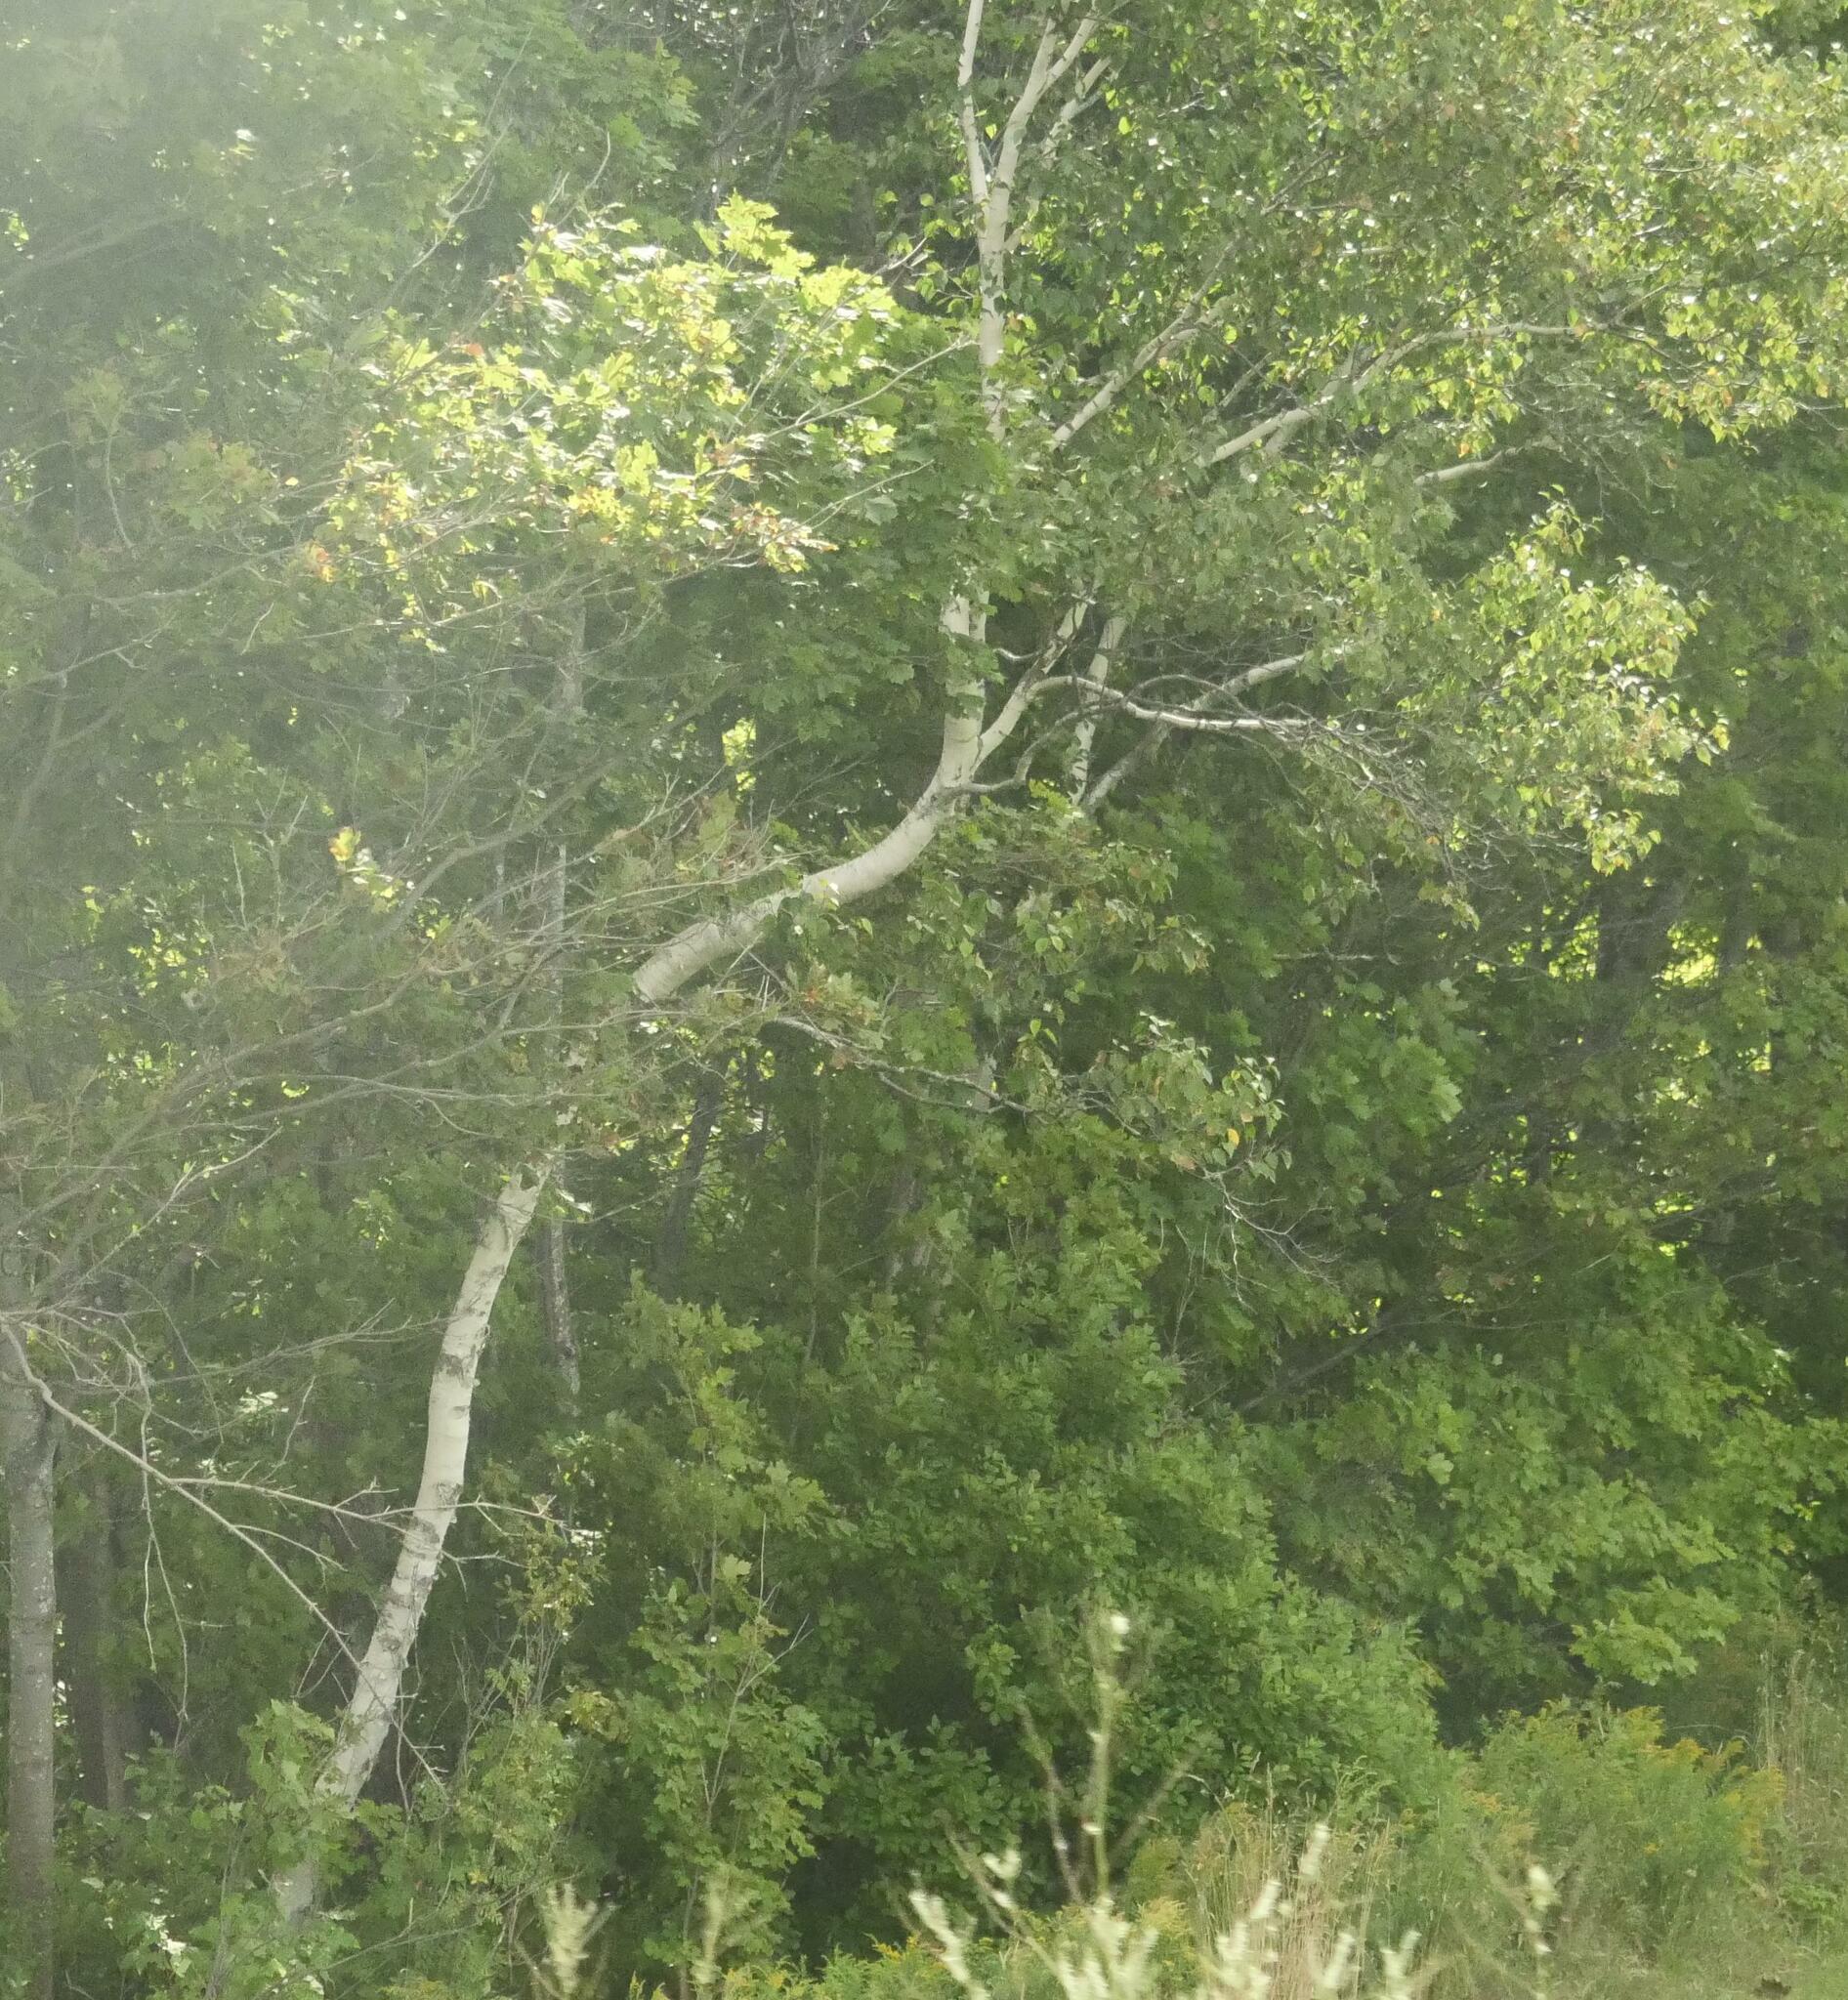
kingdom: Plantae
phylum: Tracheophyta
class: Magnoliopsida
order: Fagales
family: Betulaceae
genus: Betula
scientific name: Betula papyrifera
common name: Paper birch
